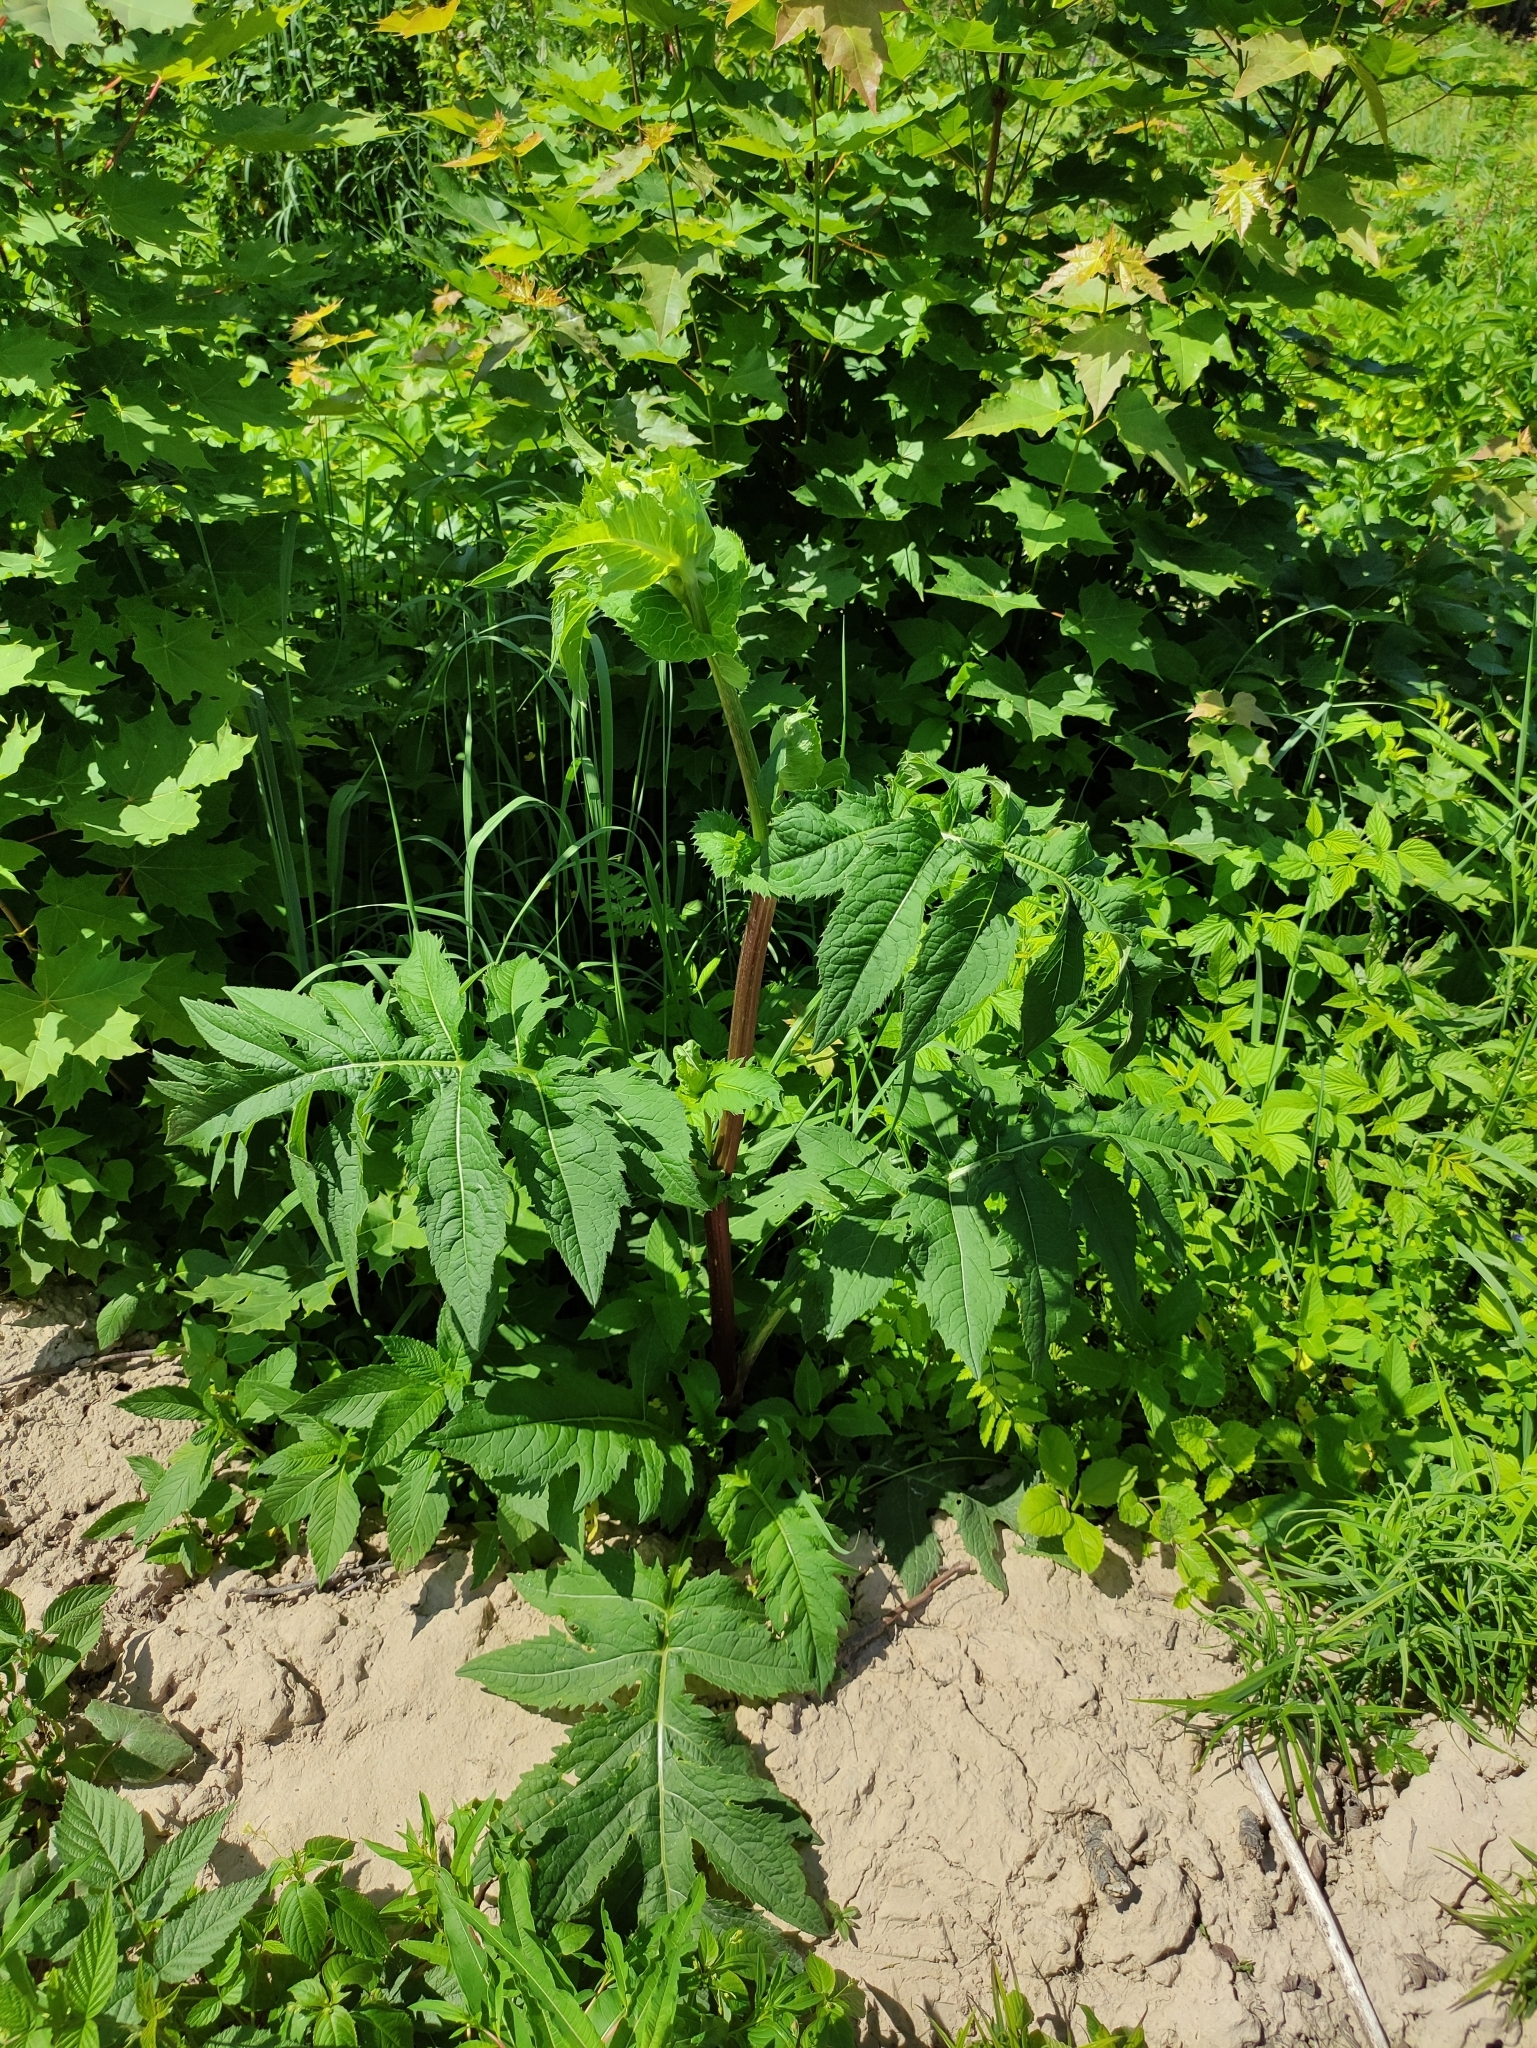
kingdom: Plantae
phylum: Tracheophyta
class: Magnoliopsida
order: Asterales
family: Asteraceae
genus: Cirsium
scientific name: Cirsium oleraceum
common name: Cabbage thistle
